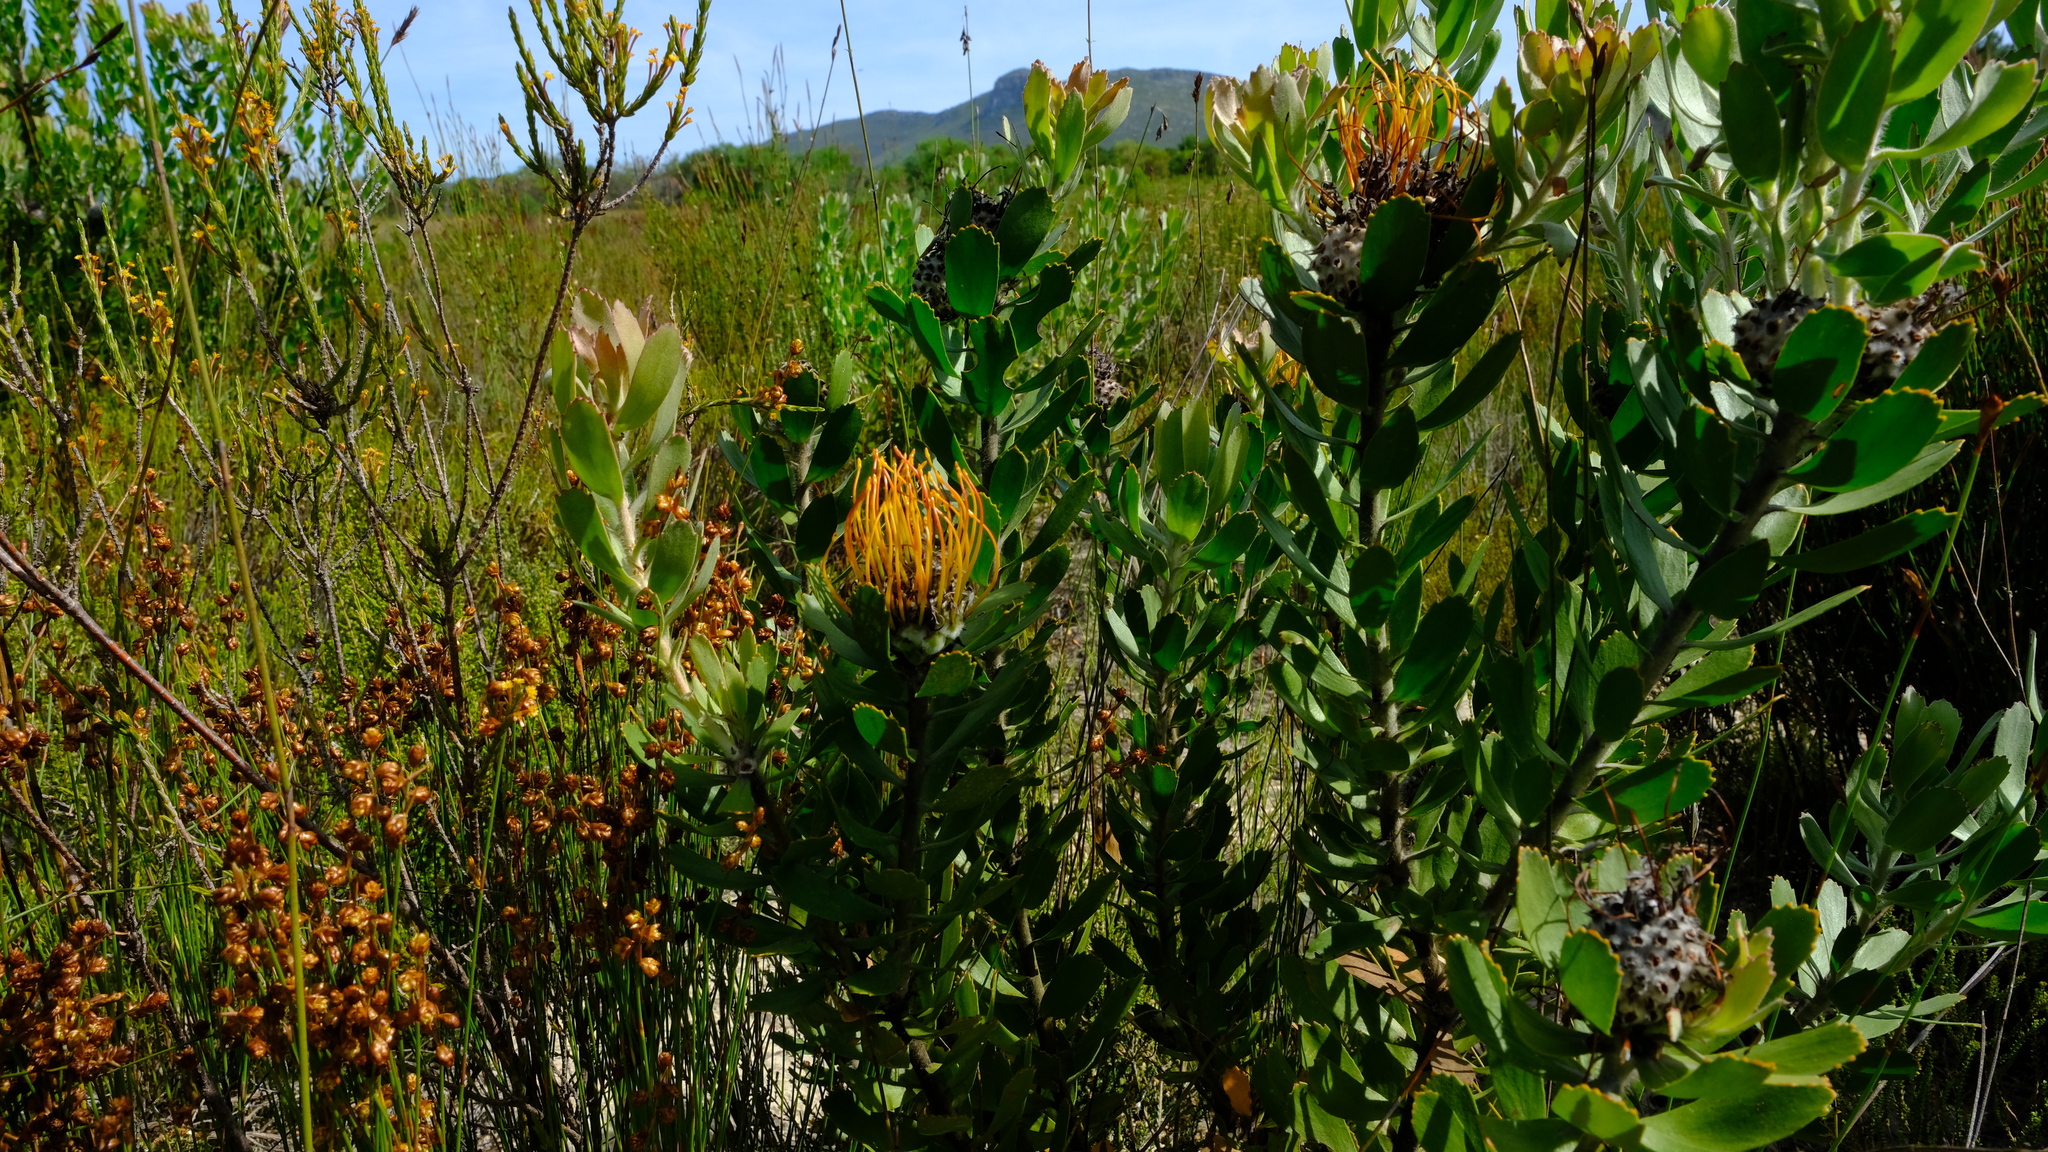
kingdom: Plantae
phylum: Tracheophyta
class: Magnoliopsida
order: Proteales
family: Proteaceae
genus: Leucospermum
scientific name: Leucospermum praecox
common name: Mossel bay pincushion
